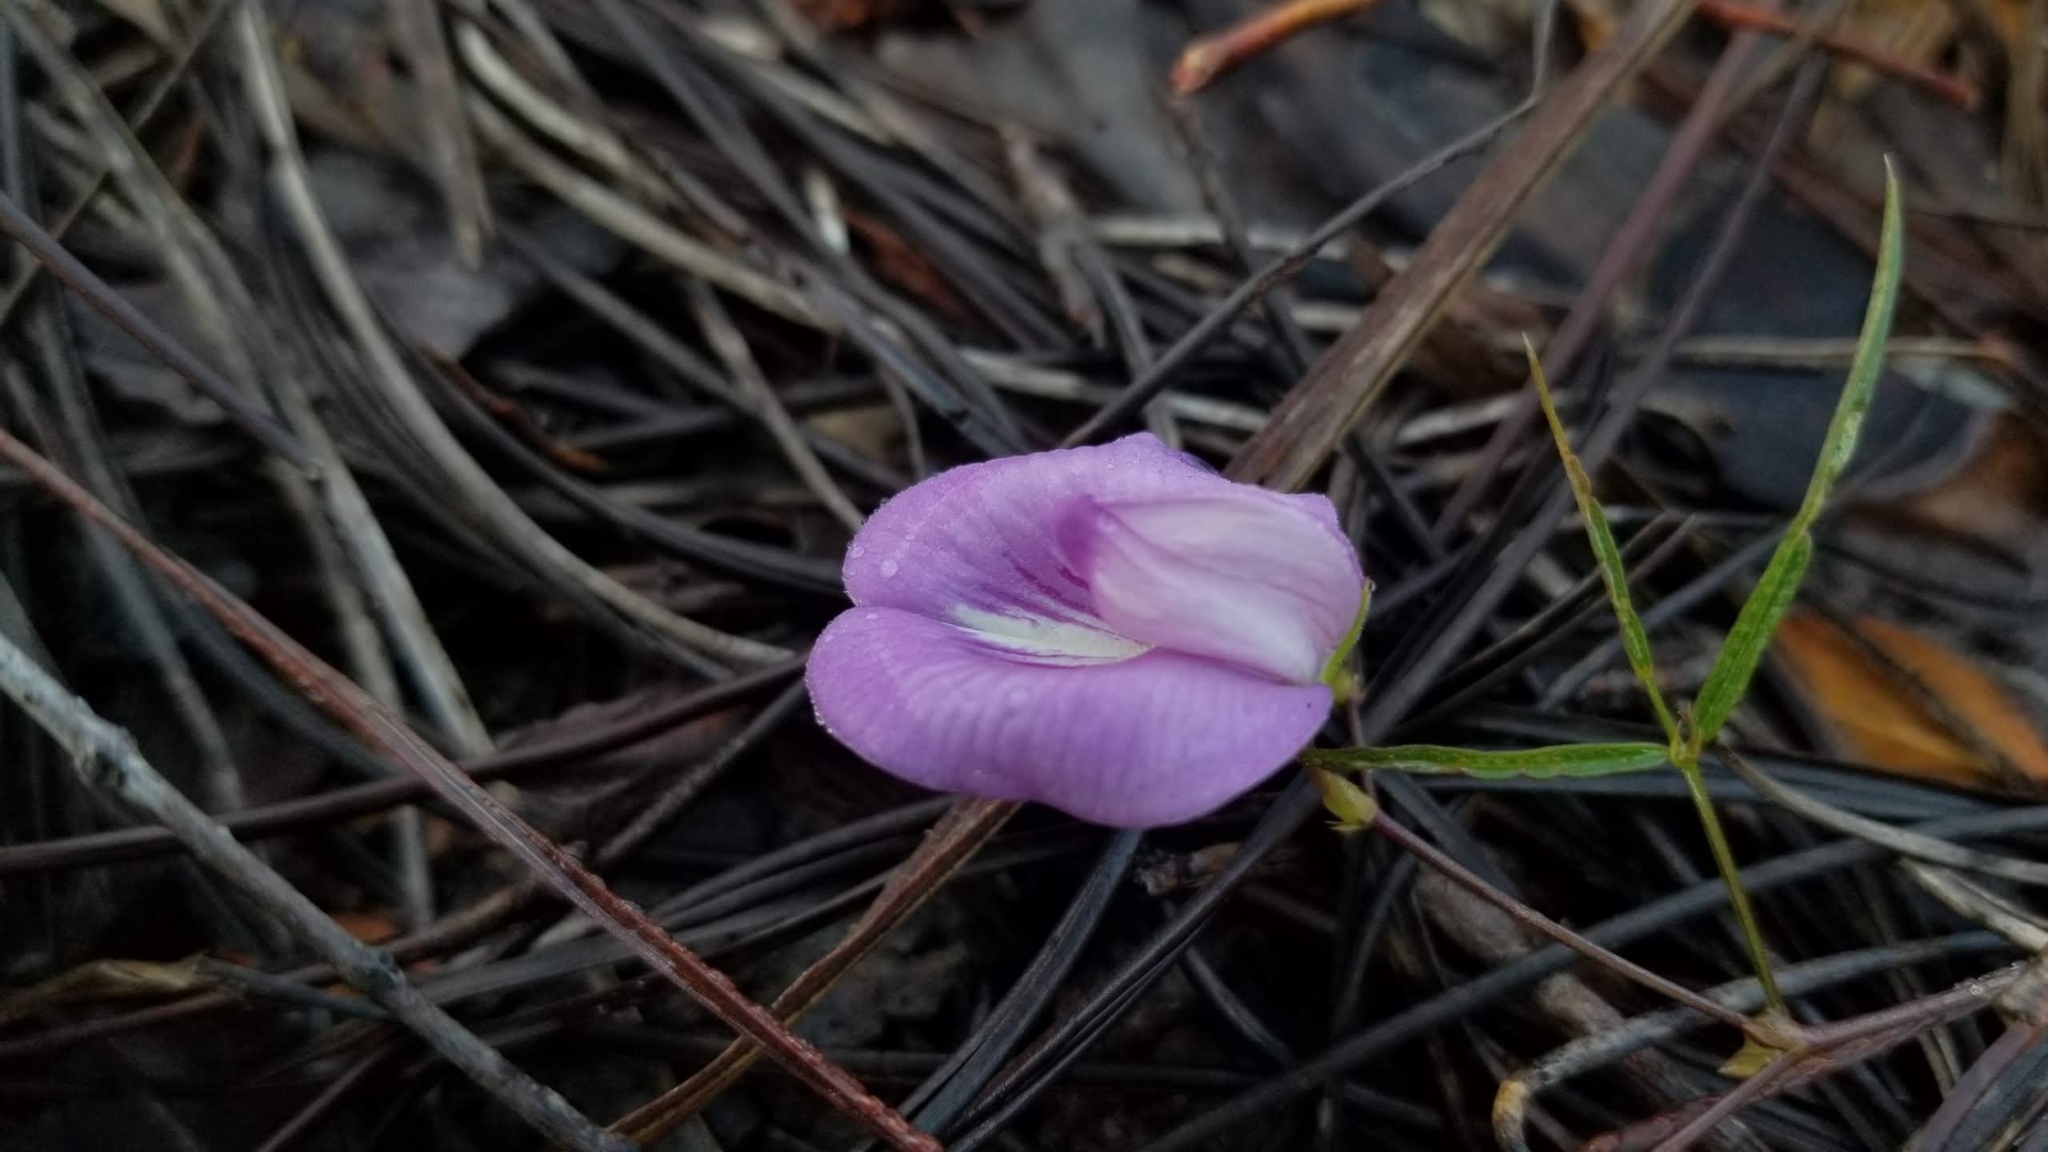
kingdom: Plantae
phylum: Tracheophyta
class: Magnoliopsida
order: Fabales
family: Fabaceae
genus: Centrosema
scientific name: Centrosema virginianum
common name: Butterfly-pea
